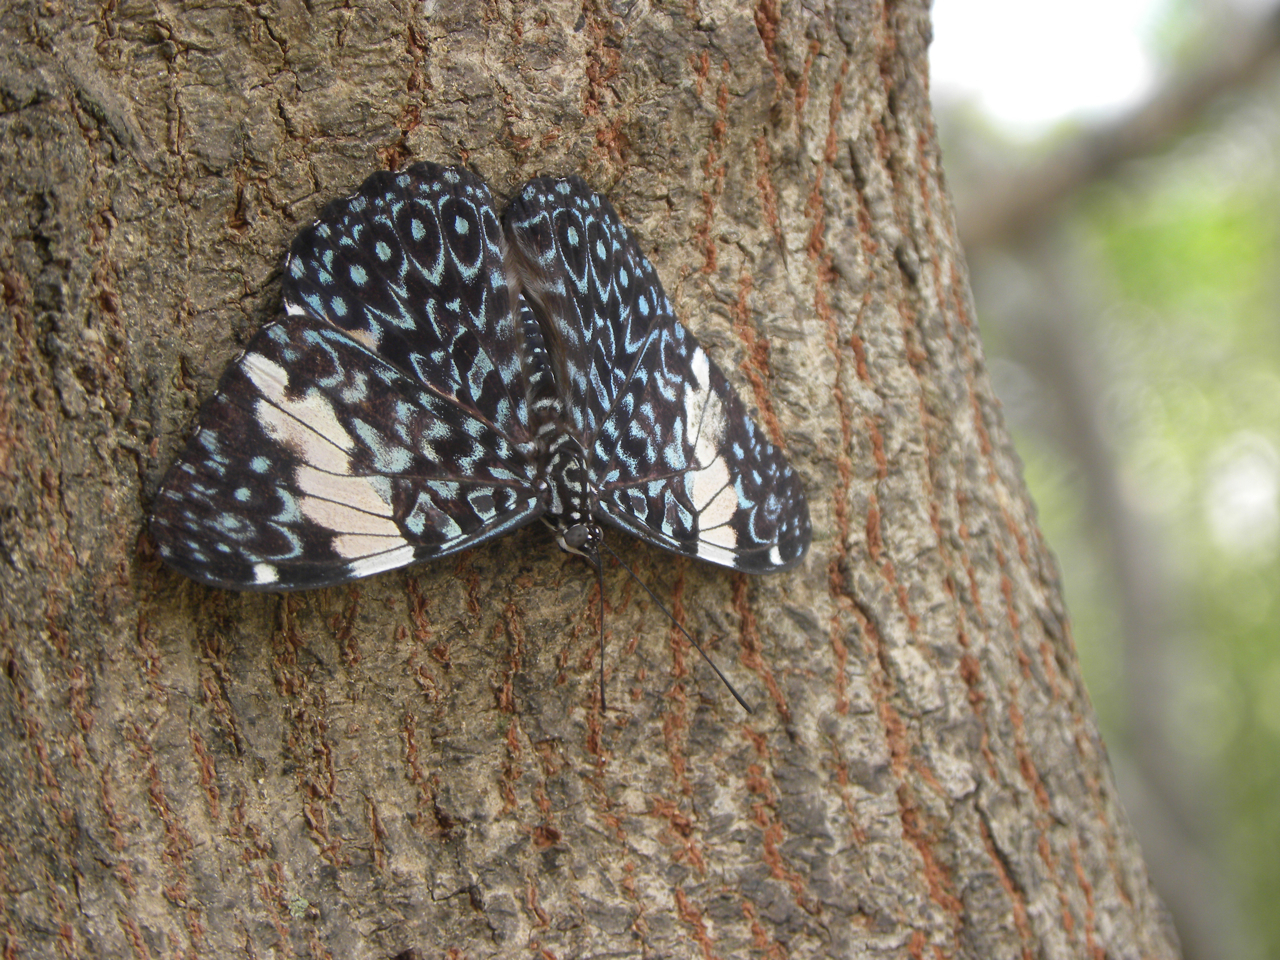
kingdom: Animalia
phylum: Arthropoda
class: Insecta
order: Lepidoptera
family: Nymphalidae
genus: Hamadryas
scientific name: Hamadryas amphinome
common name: Red cracker
